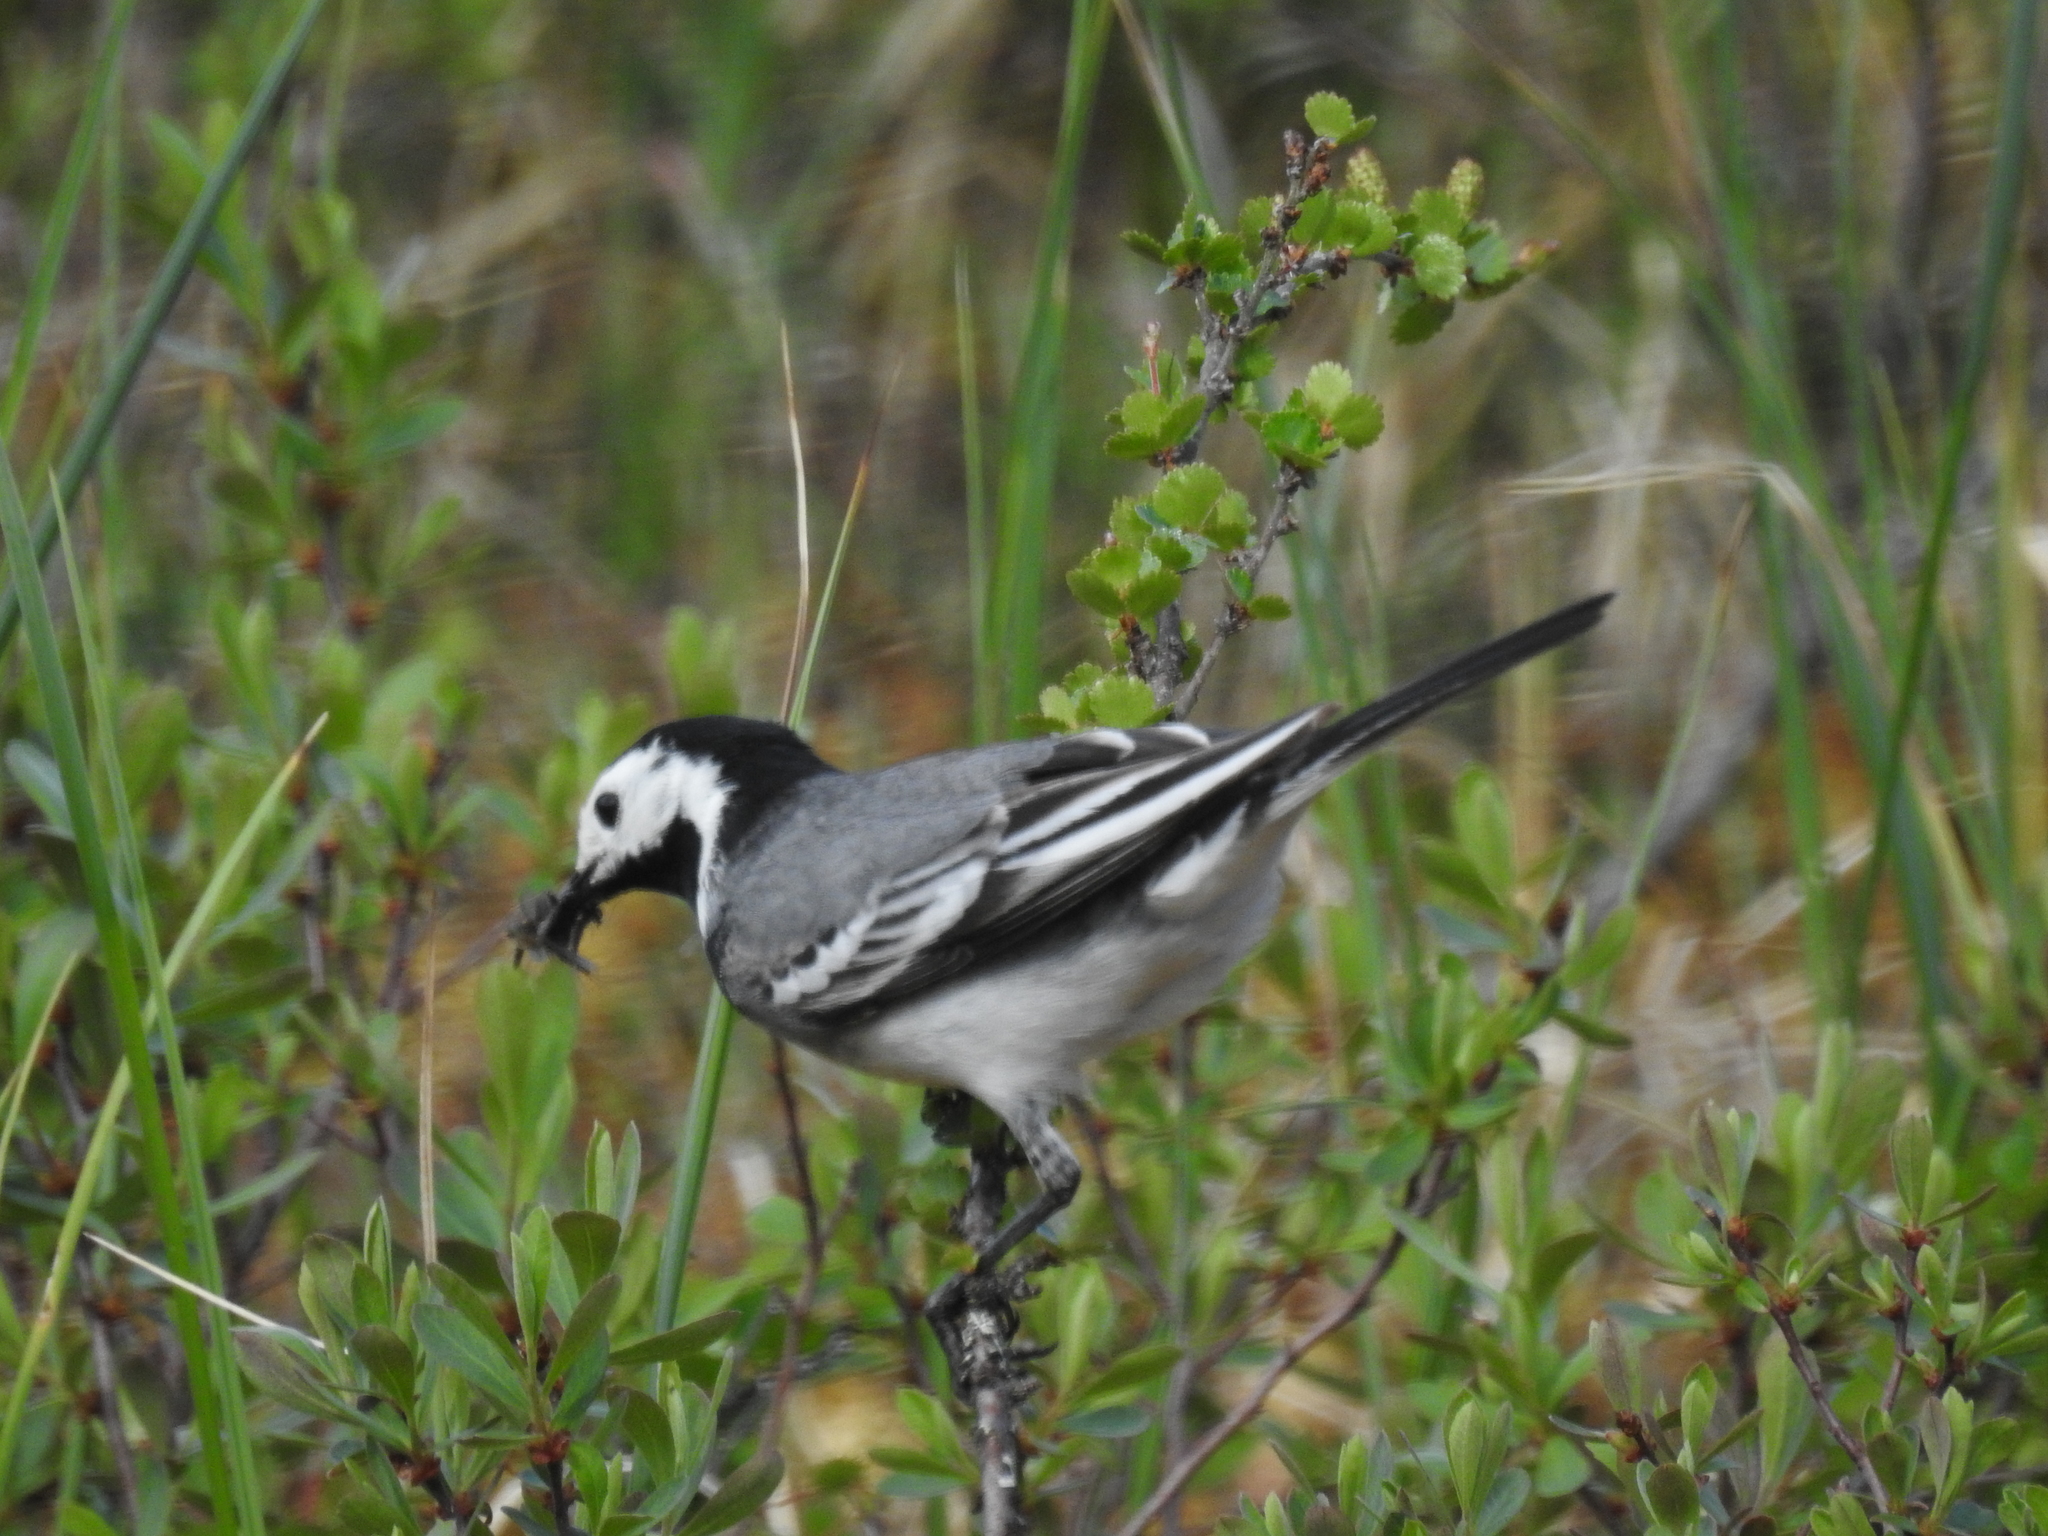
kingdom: Animalia
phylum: Chordata
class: Aves
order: Passeriformes
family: Motacillidae
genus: Motacilla
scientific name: Motacilla alba
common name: White wagtail
